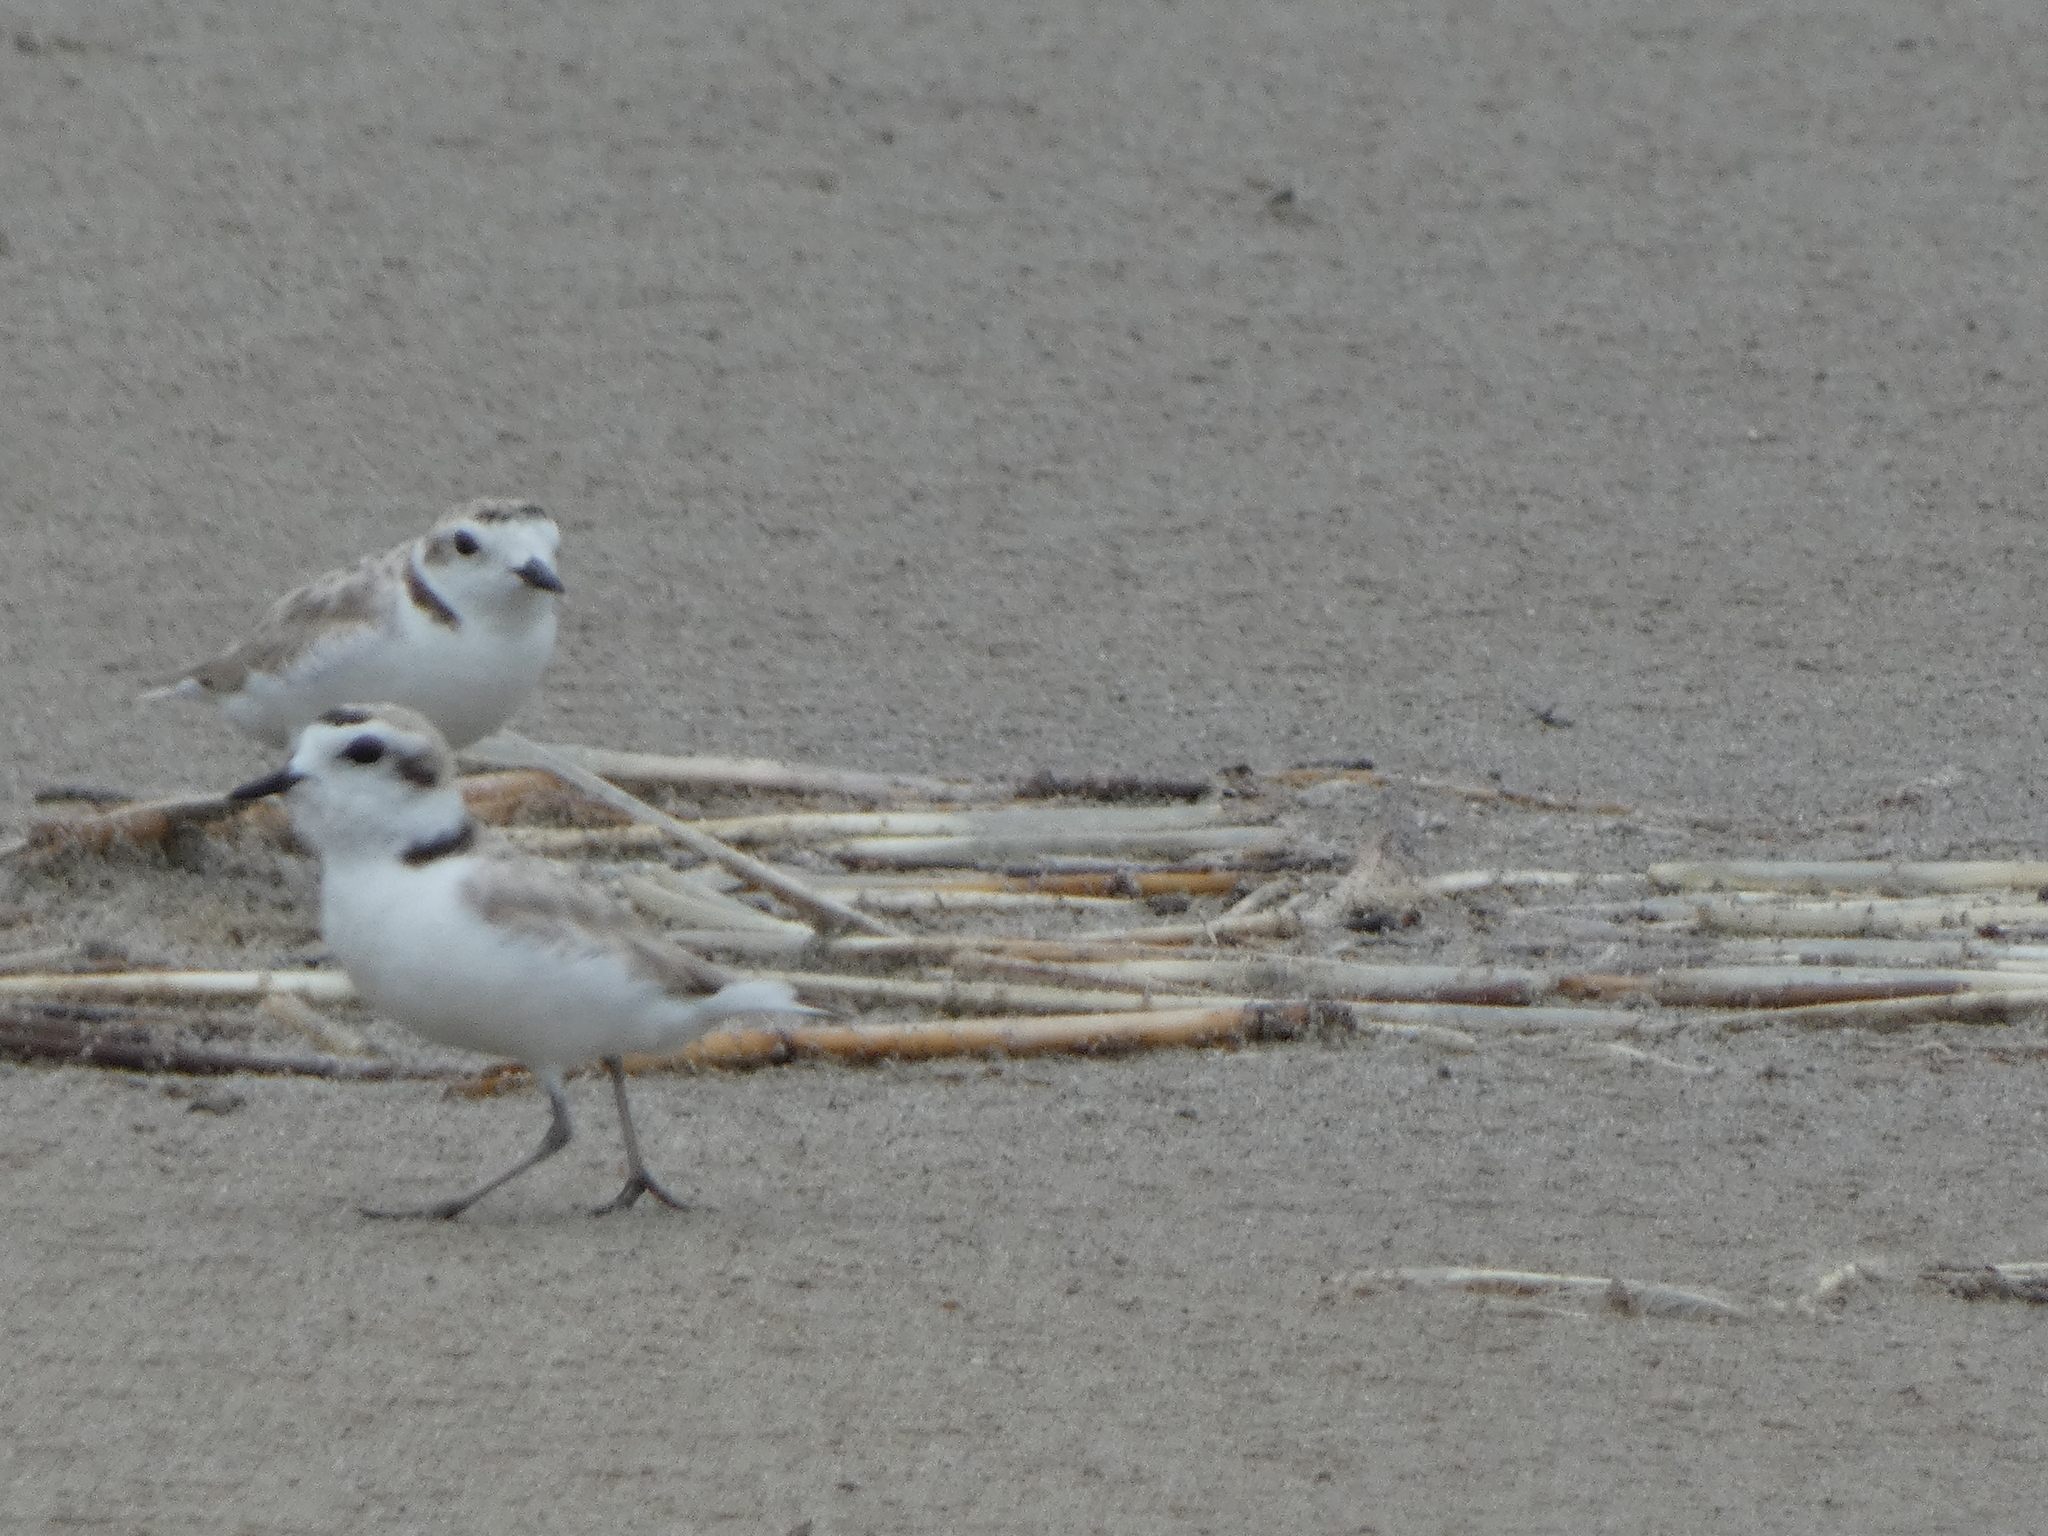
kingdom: Animalia
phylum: Chordata
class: Aves
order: Charadriiformes
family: Charadriidae
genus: Anarhynchus
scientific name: Anarhynchus
